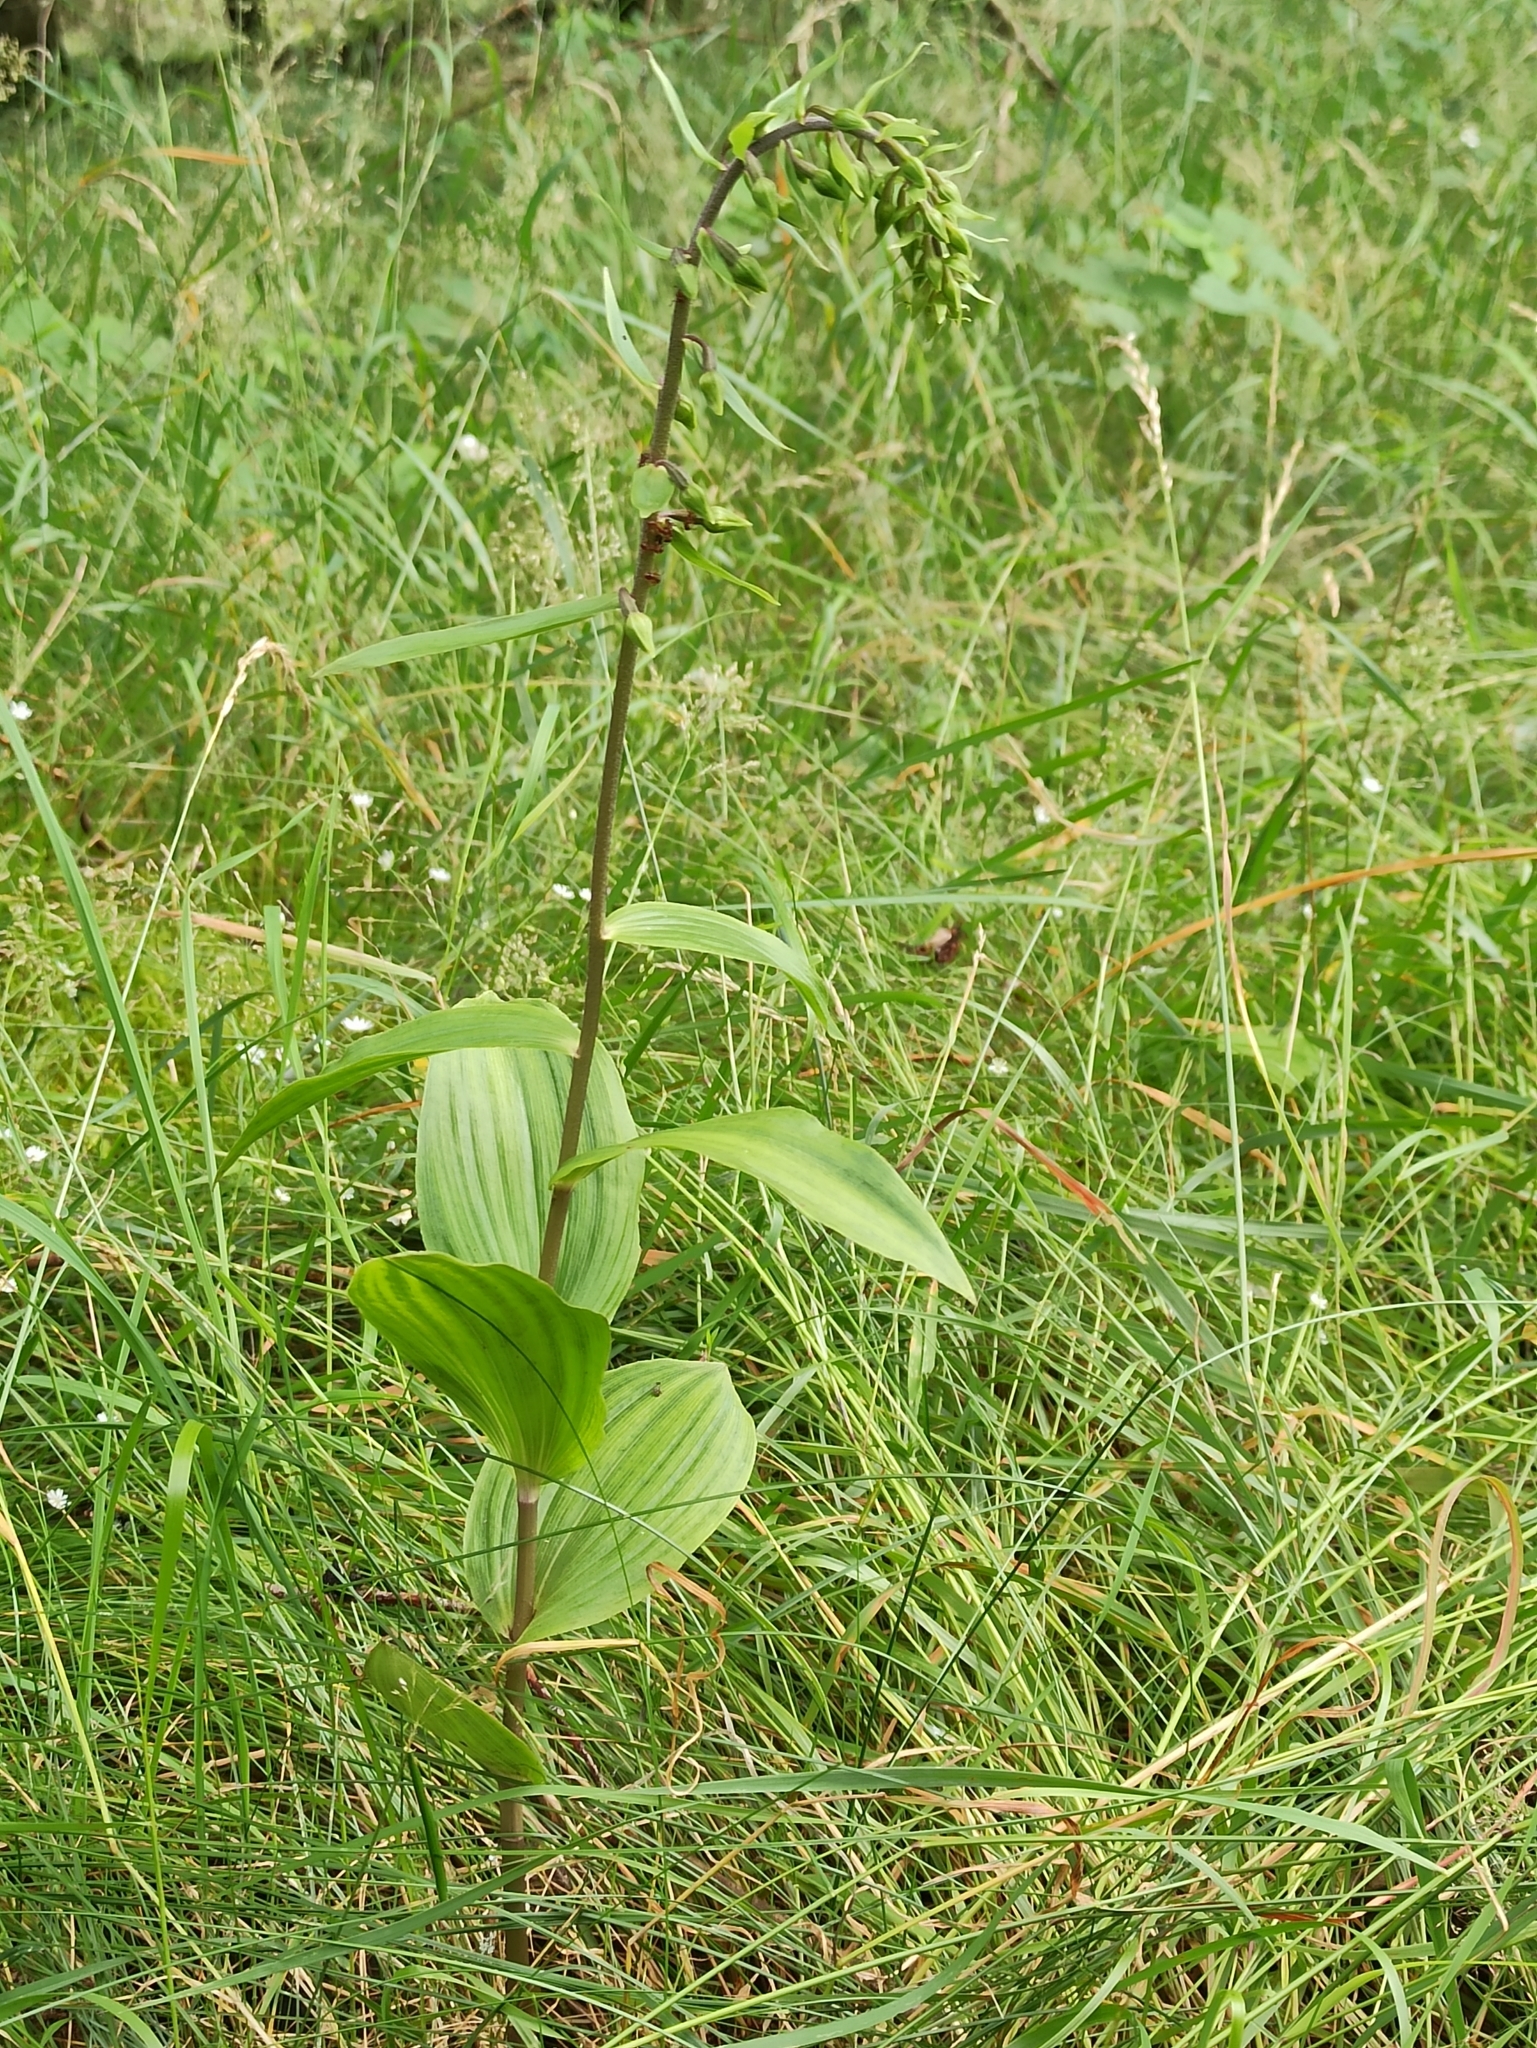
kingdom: Plantae
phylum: Tracheophyta
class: Liliopsida
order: Asparagales
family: Orchidaceae
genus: Epipactis
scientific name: Epipactis helleborine
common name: Broad-leaved helleborine
